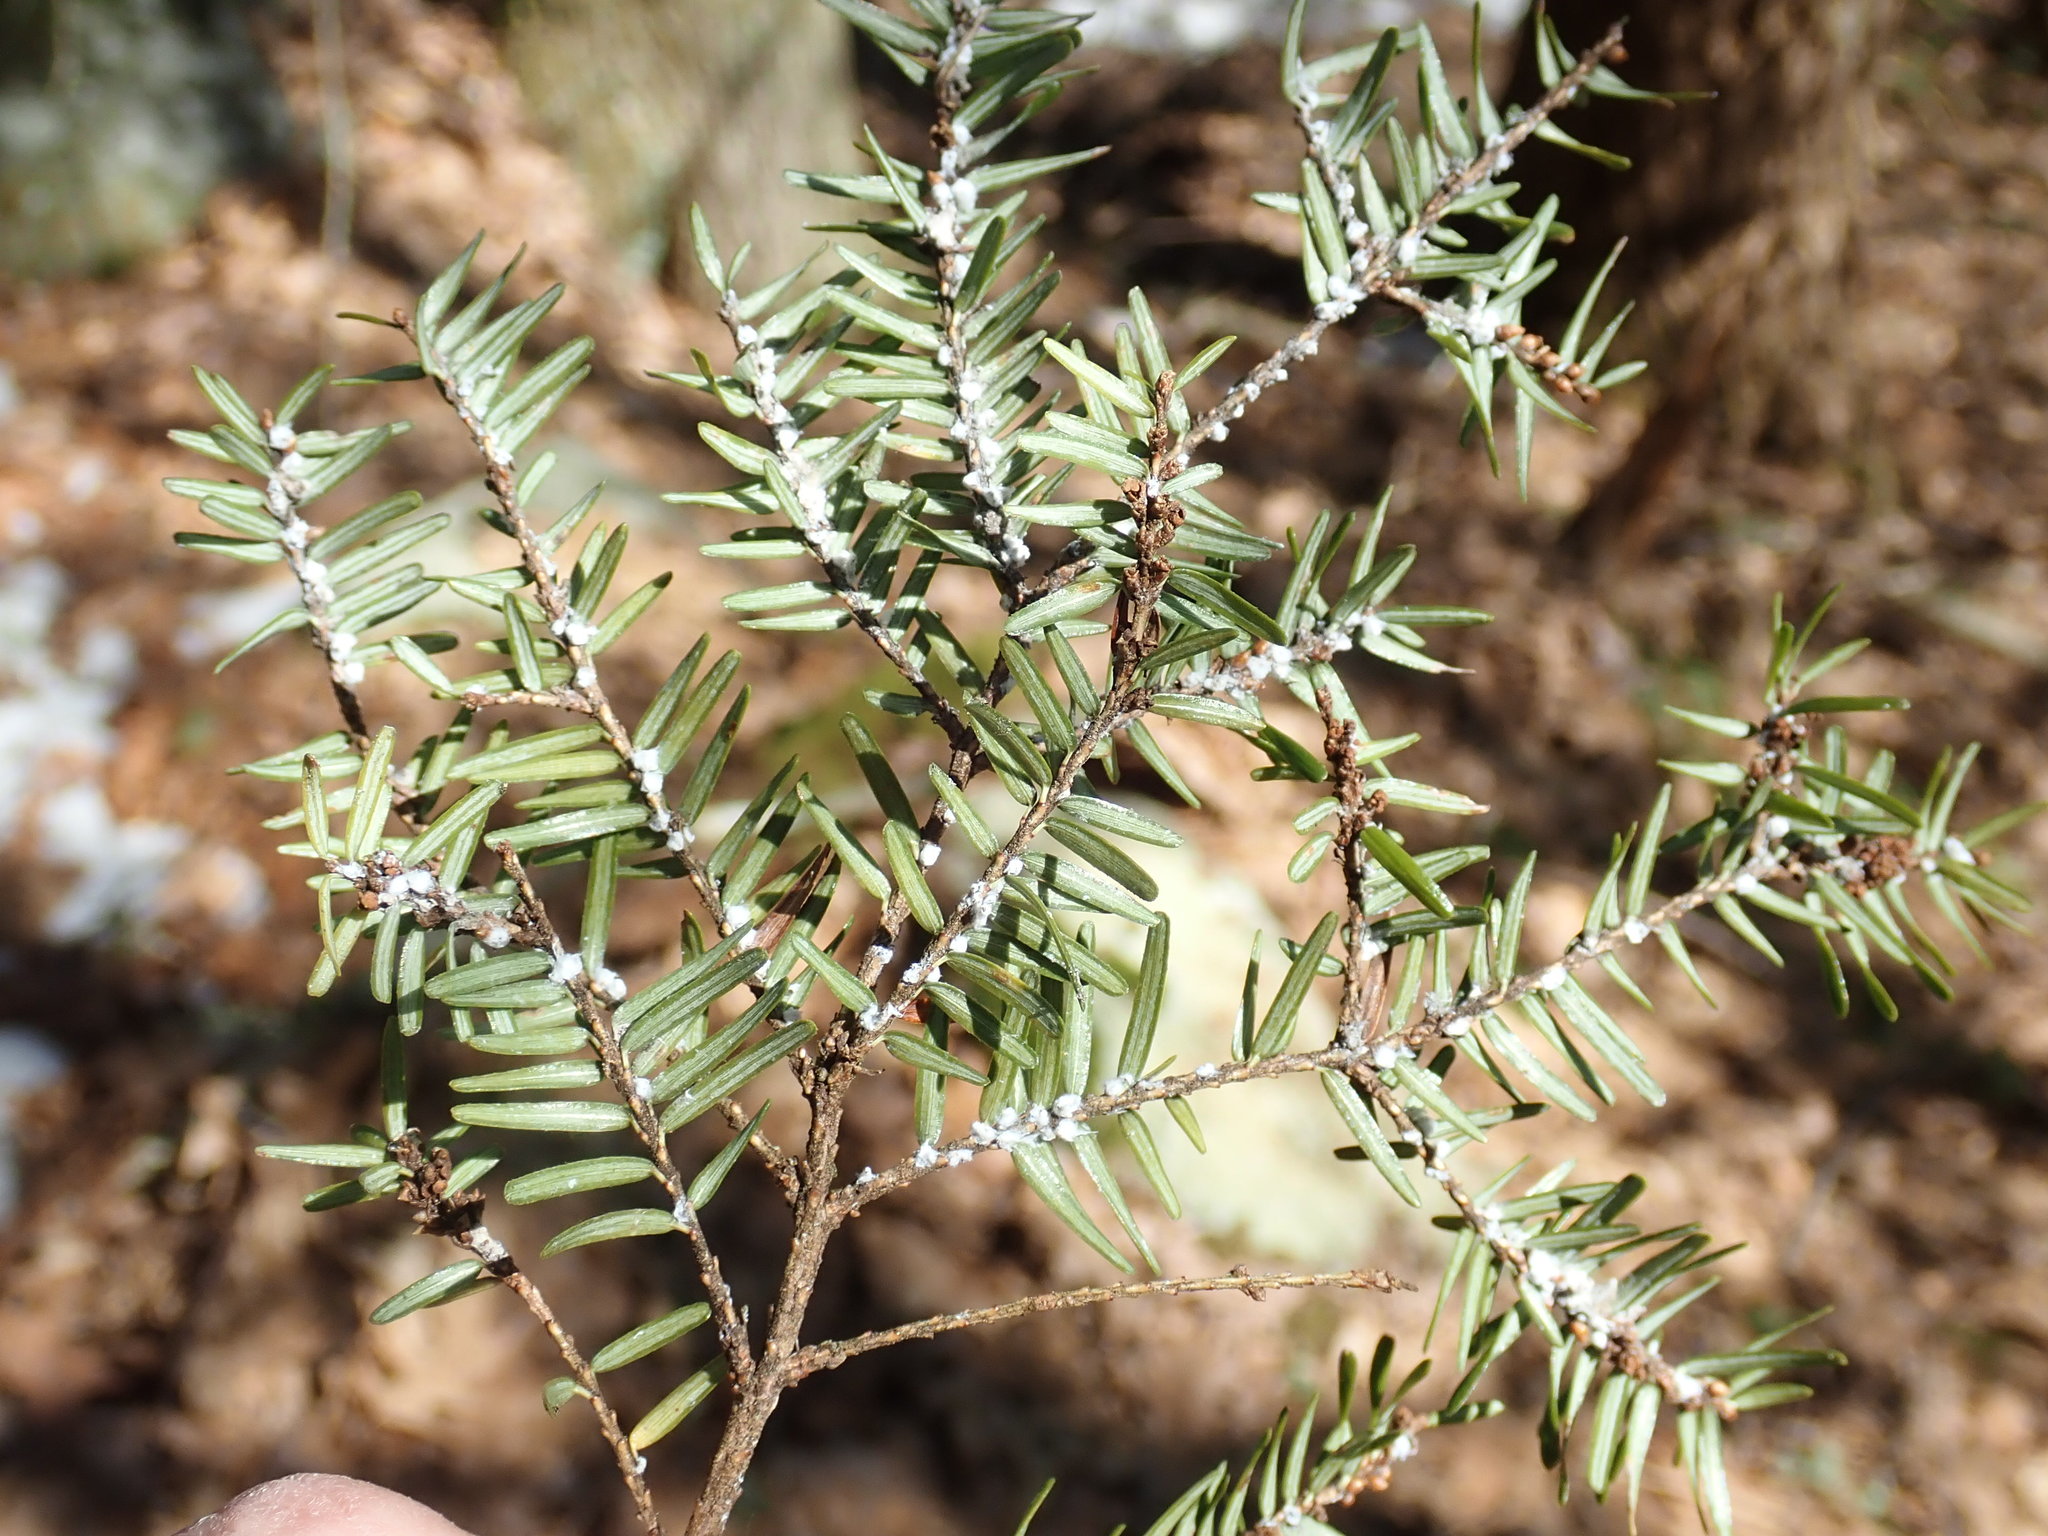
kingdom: Animalia
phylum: Arthropoda
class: Insecta
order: Hemiptera
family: Adelgidae
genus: Adelges
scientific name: Adelges tsugae
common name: Hemlock woolly adelgid
